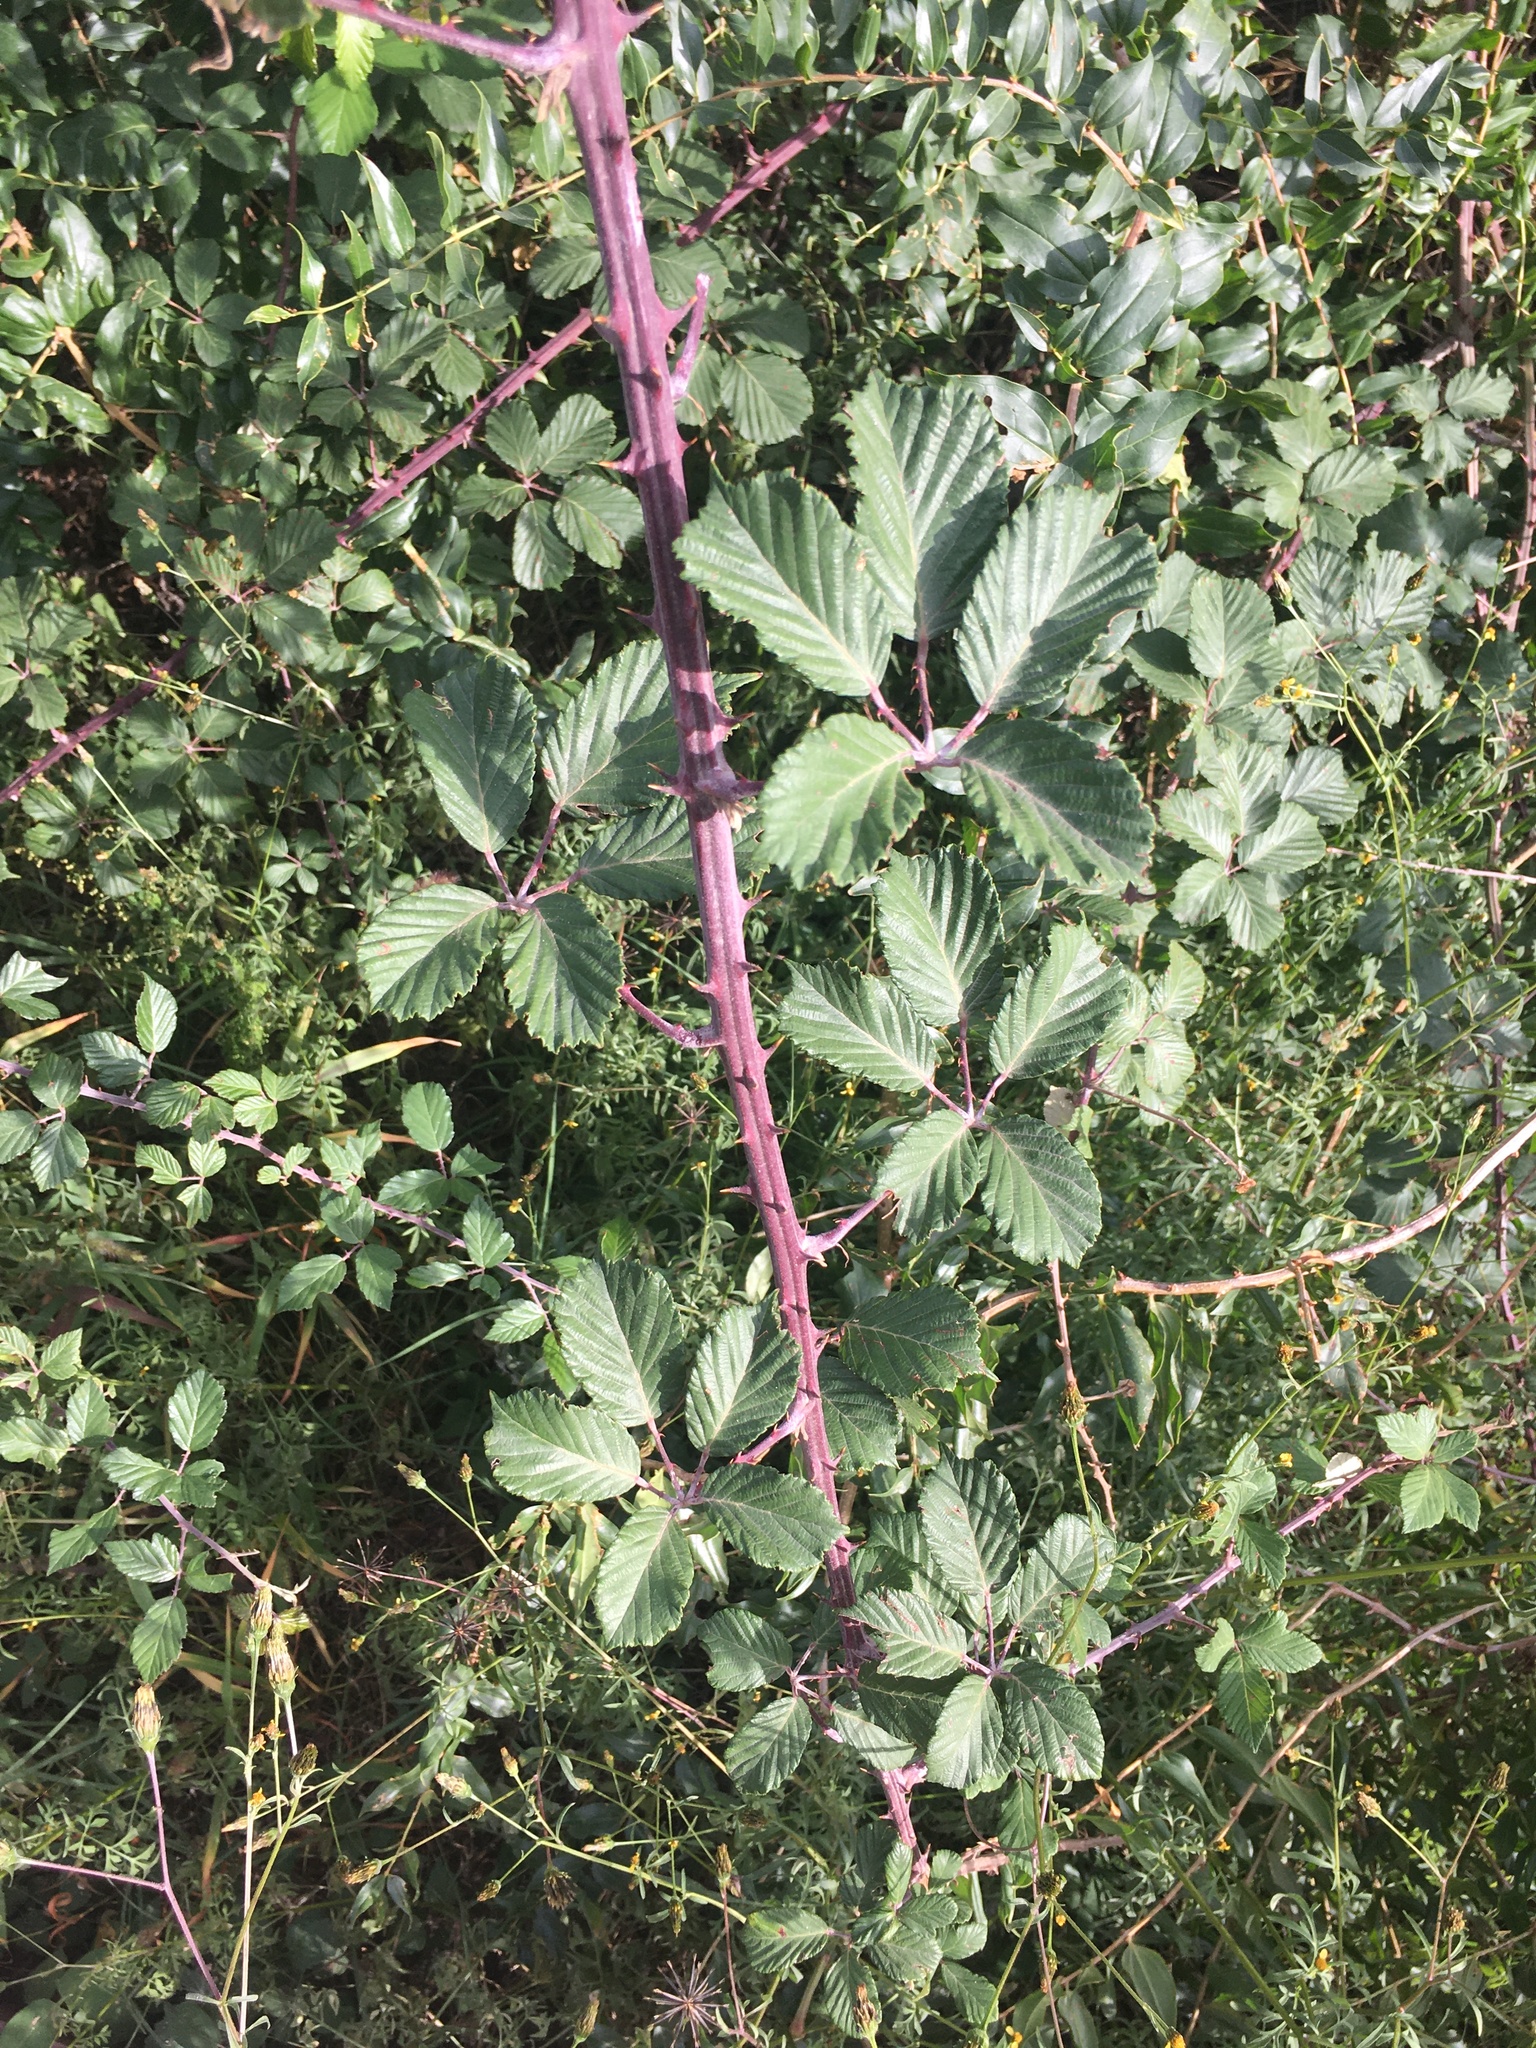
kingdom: Plantae
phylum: Tracheophyta
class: Magnoliopsida
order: Rosales
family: Rosaceae
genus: Rubus
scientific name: Rubus ulmifolius
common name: Elmleaf blackberry
